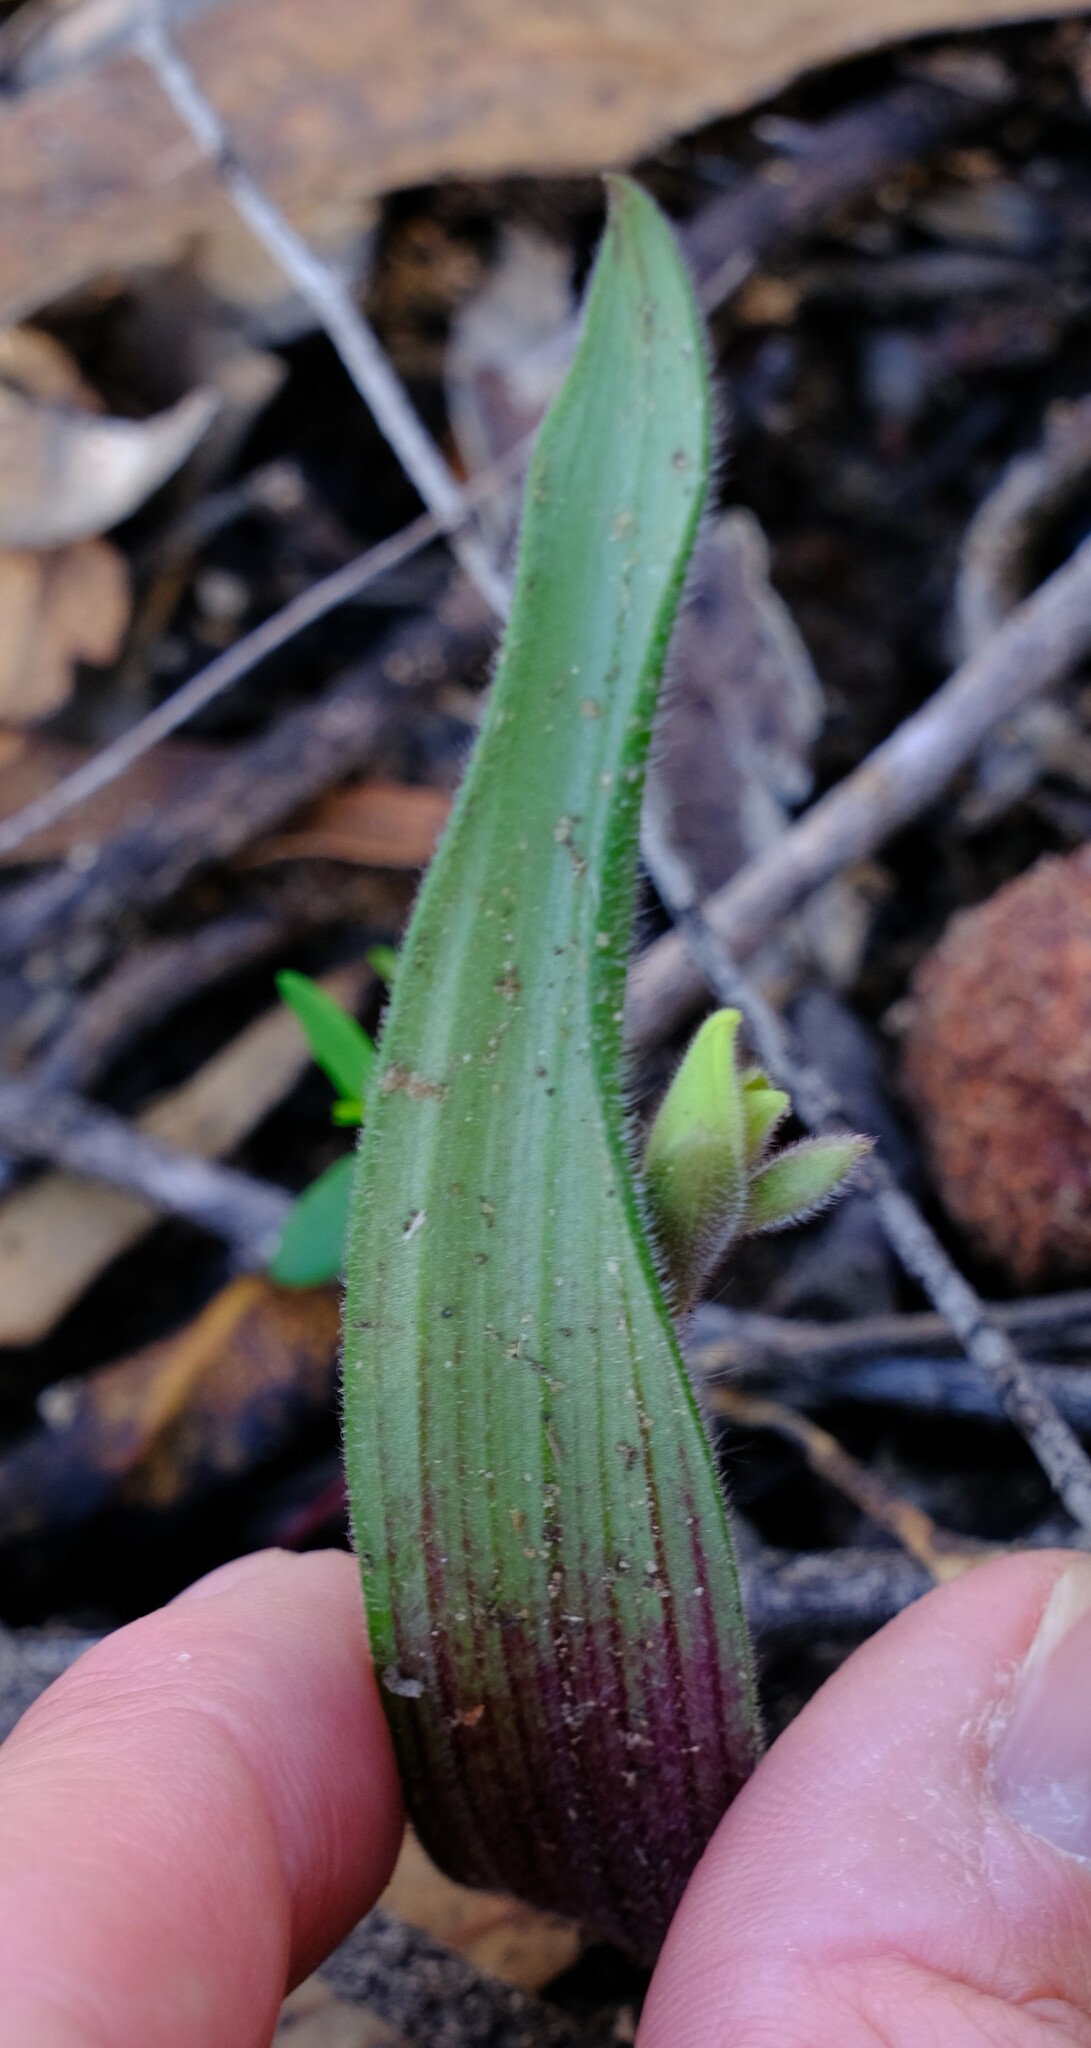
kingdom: Plantae
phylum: Tracheophyta
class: Liliopsida
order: Asparagales
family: Orchidaceae
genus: Caladenia
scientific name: Caladenia flava
